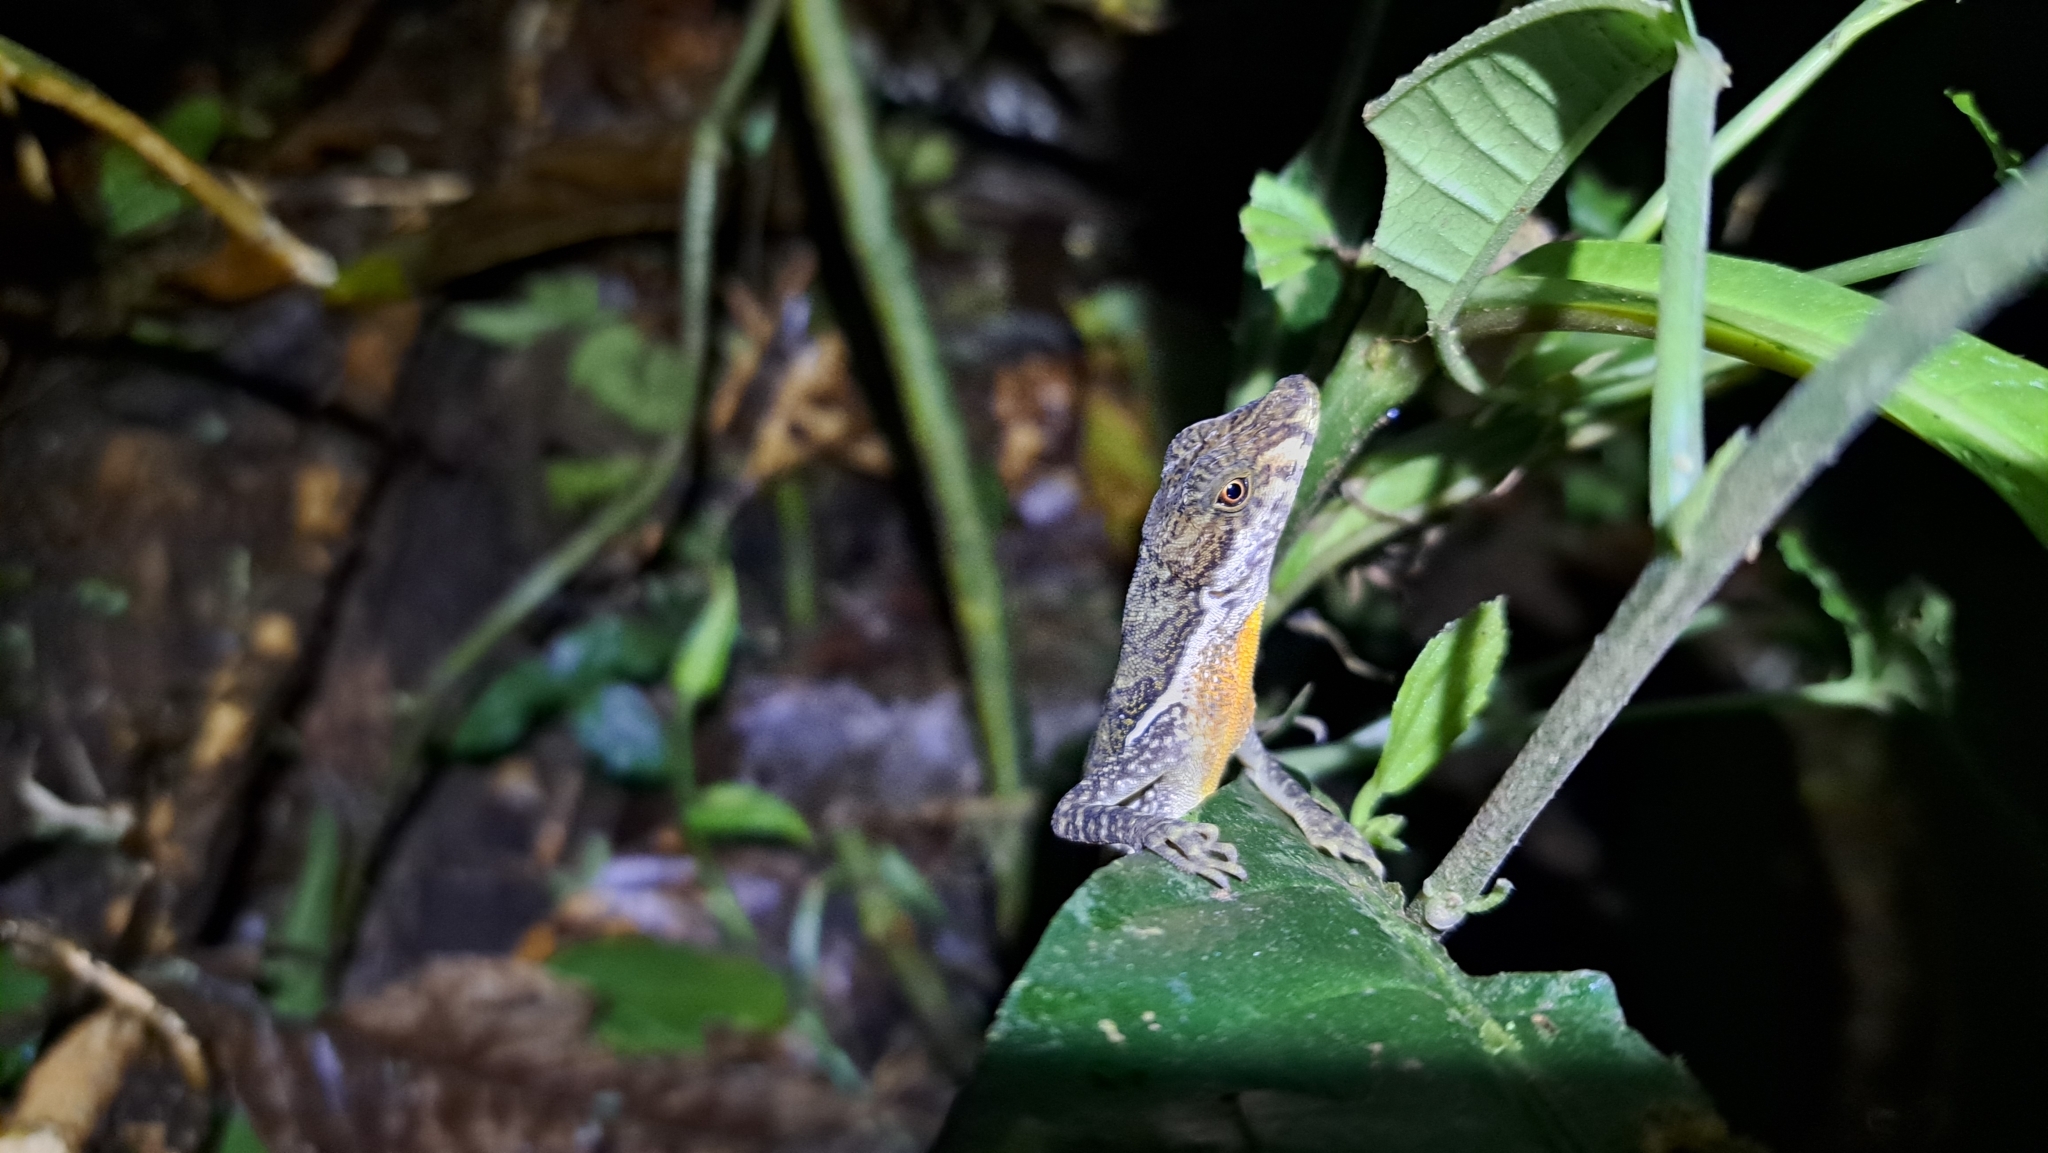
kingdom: Animalia
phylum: Chordata
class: Squamata
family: Dactyloidae
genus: Anolis
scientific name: Anolis oxylophus
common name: Stream anole
